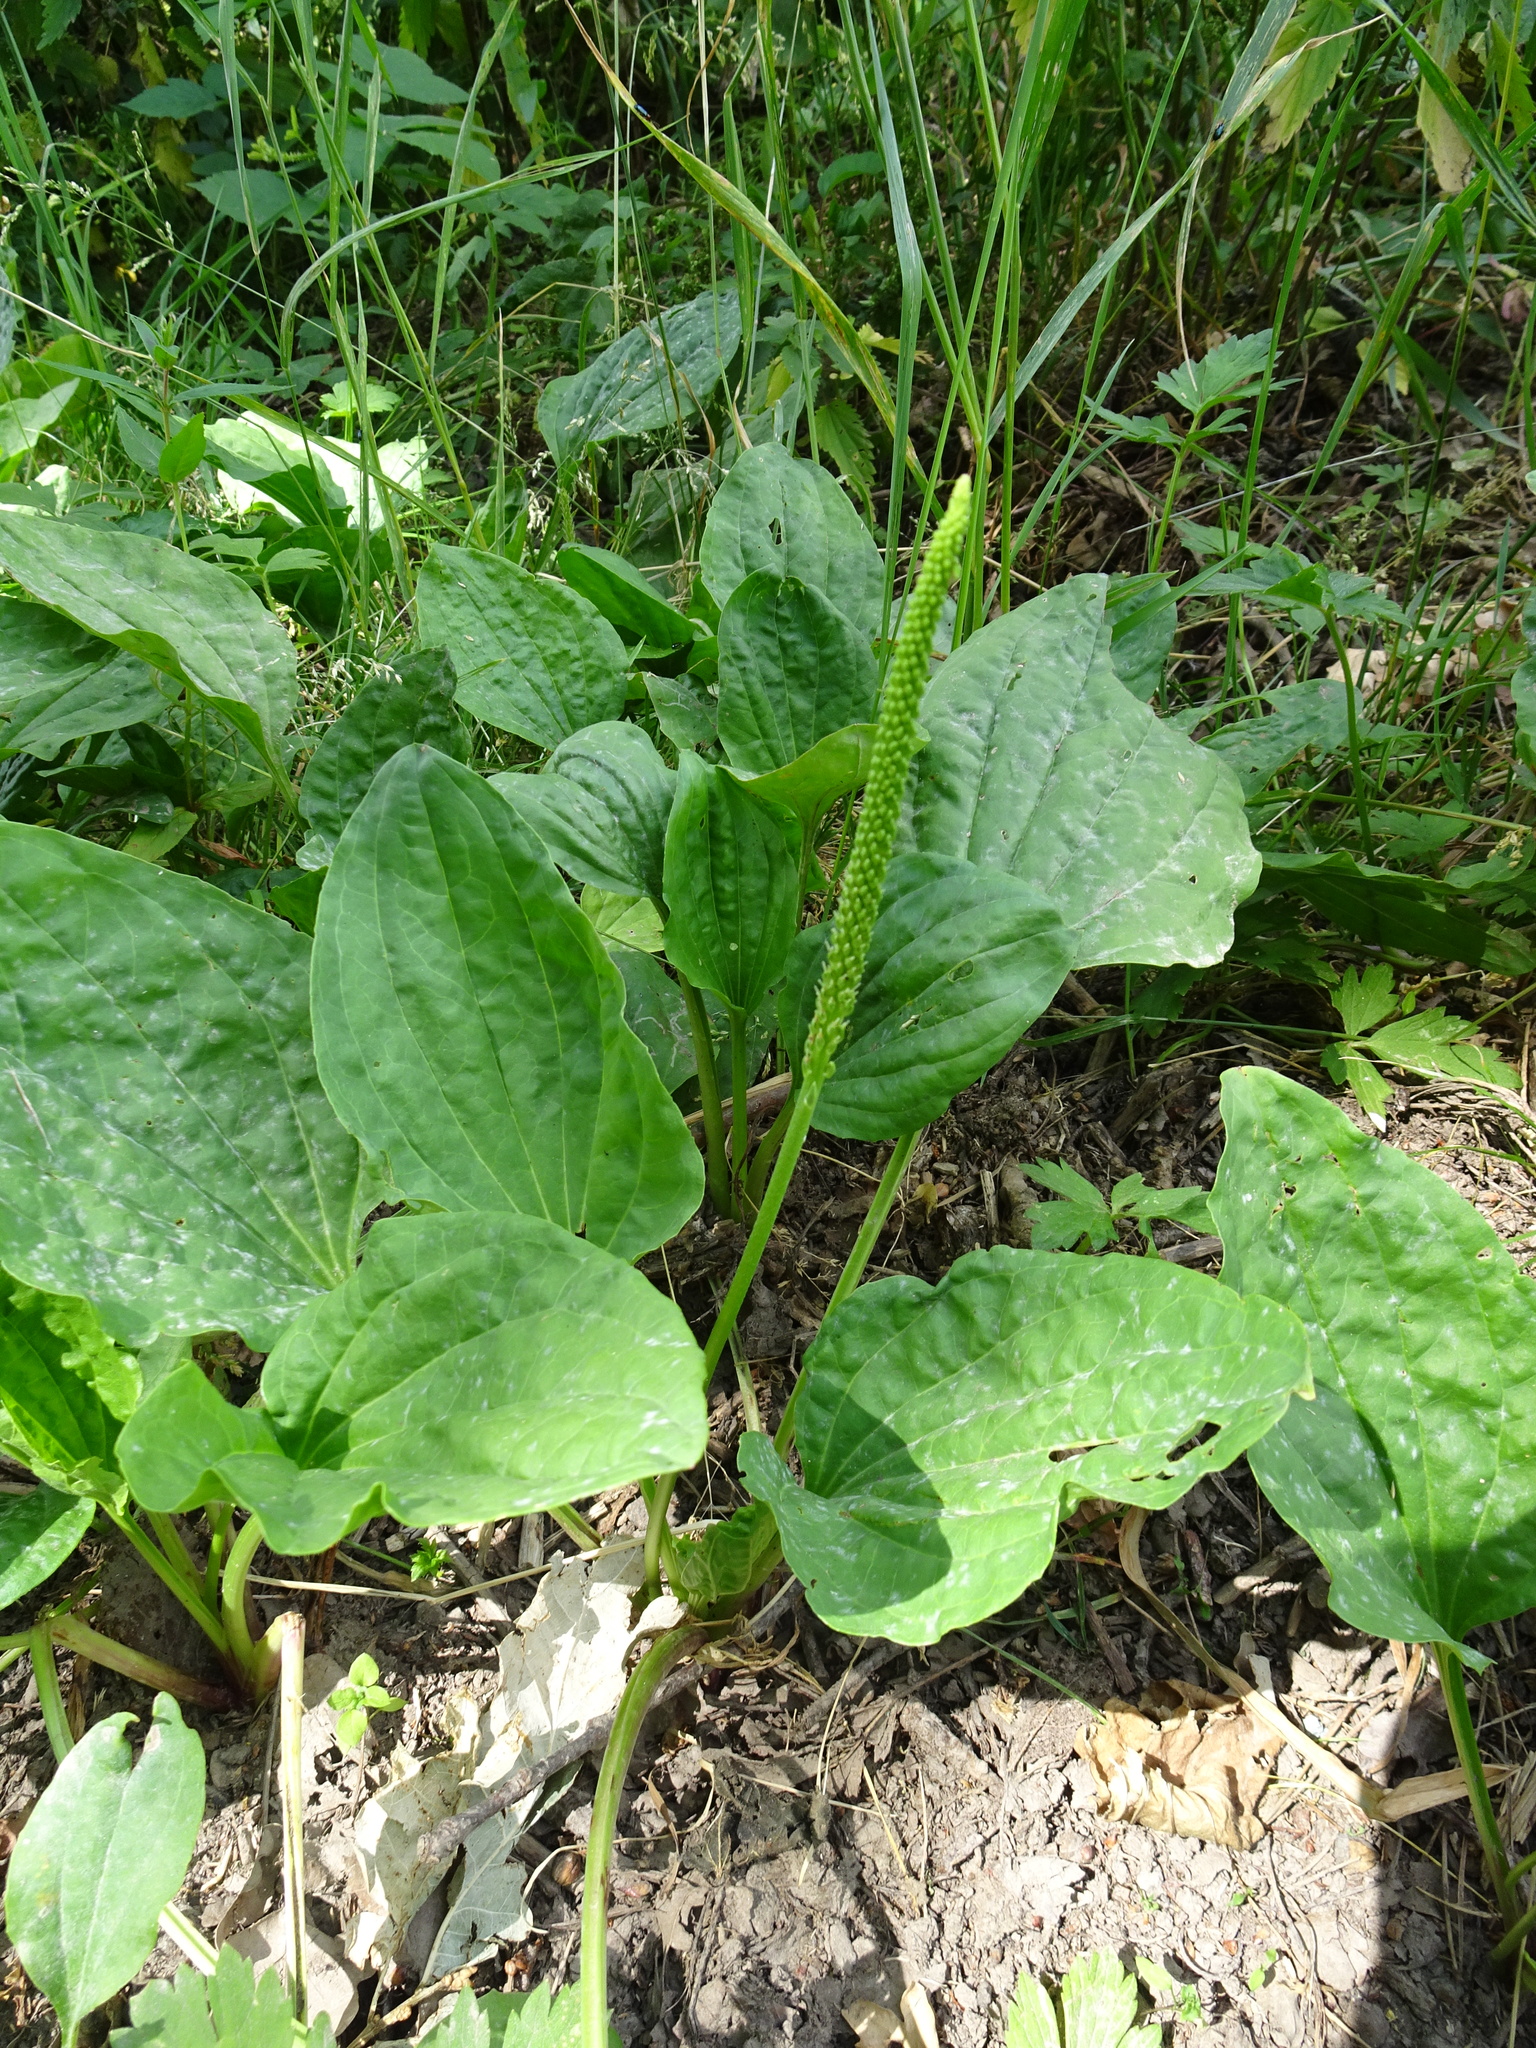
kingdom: Plantae
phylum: Tracheophyta
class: Magnoliopsida
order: Lamiales
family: Plantaginaceae
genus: Plantago
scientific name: Plantago major
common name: Common plantain
